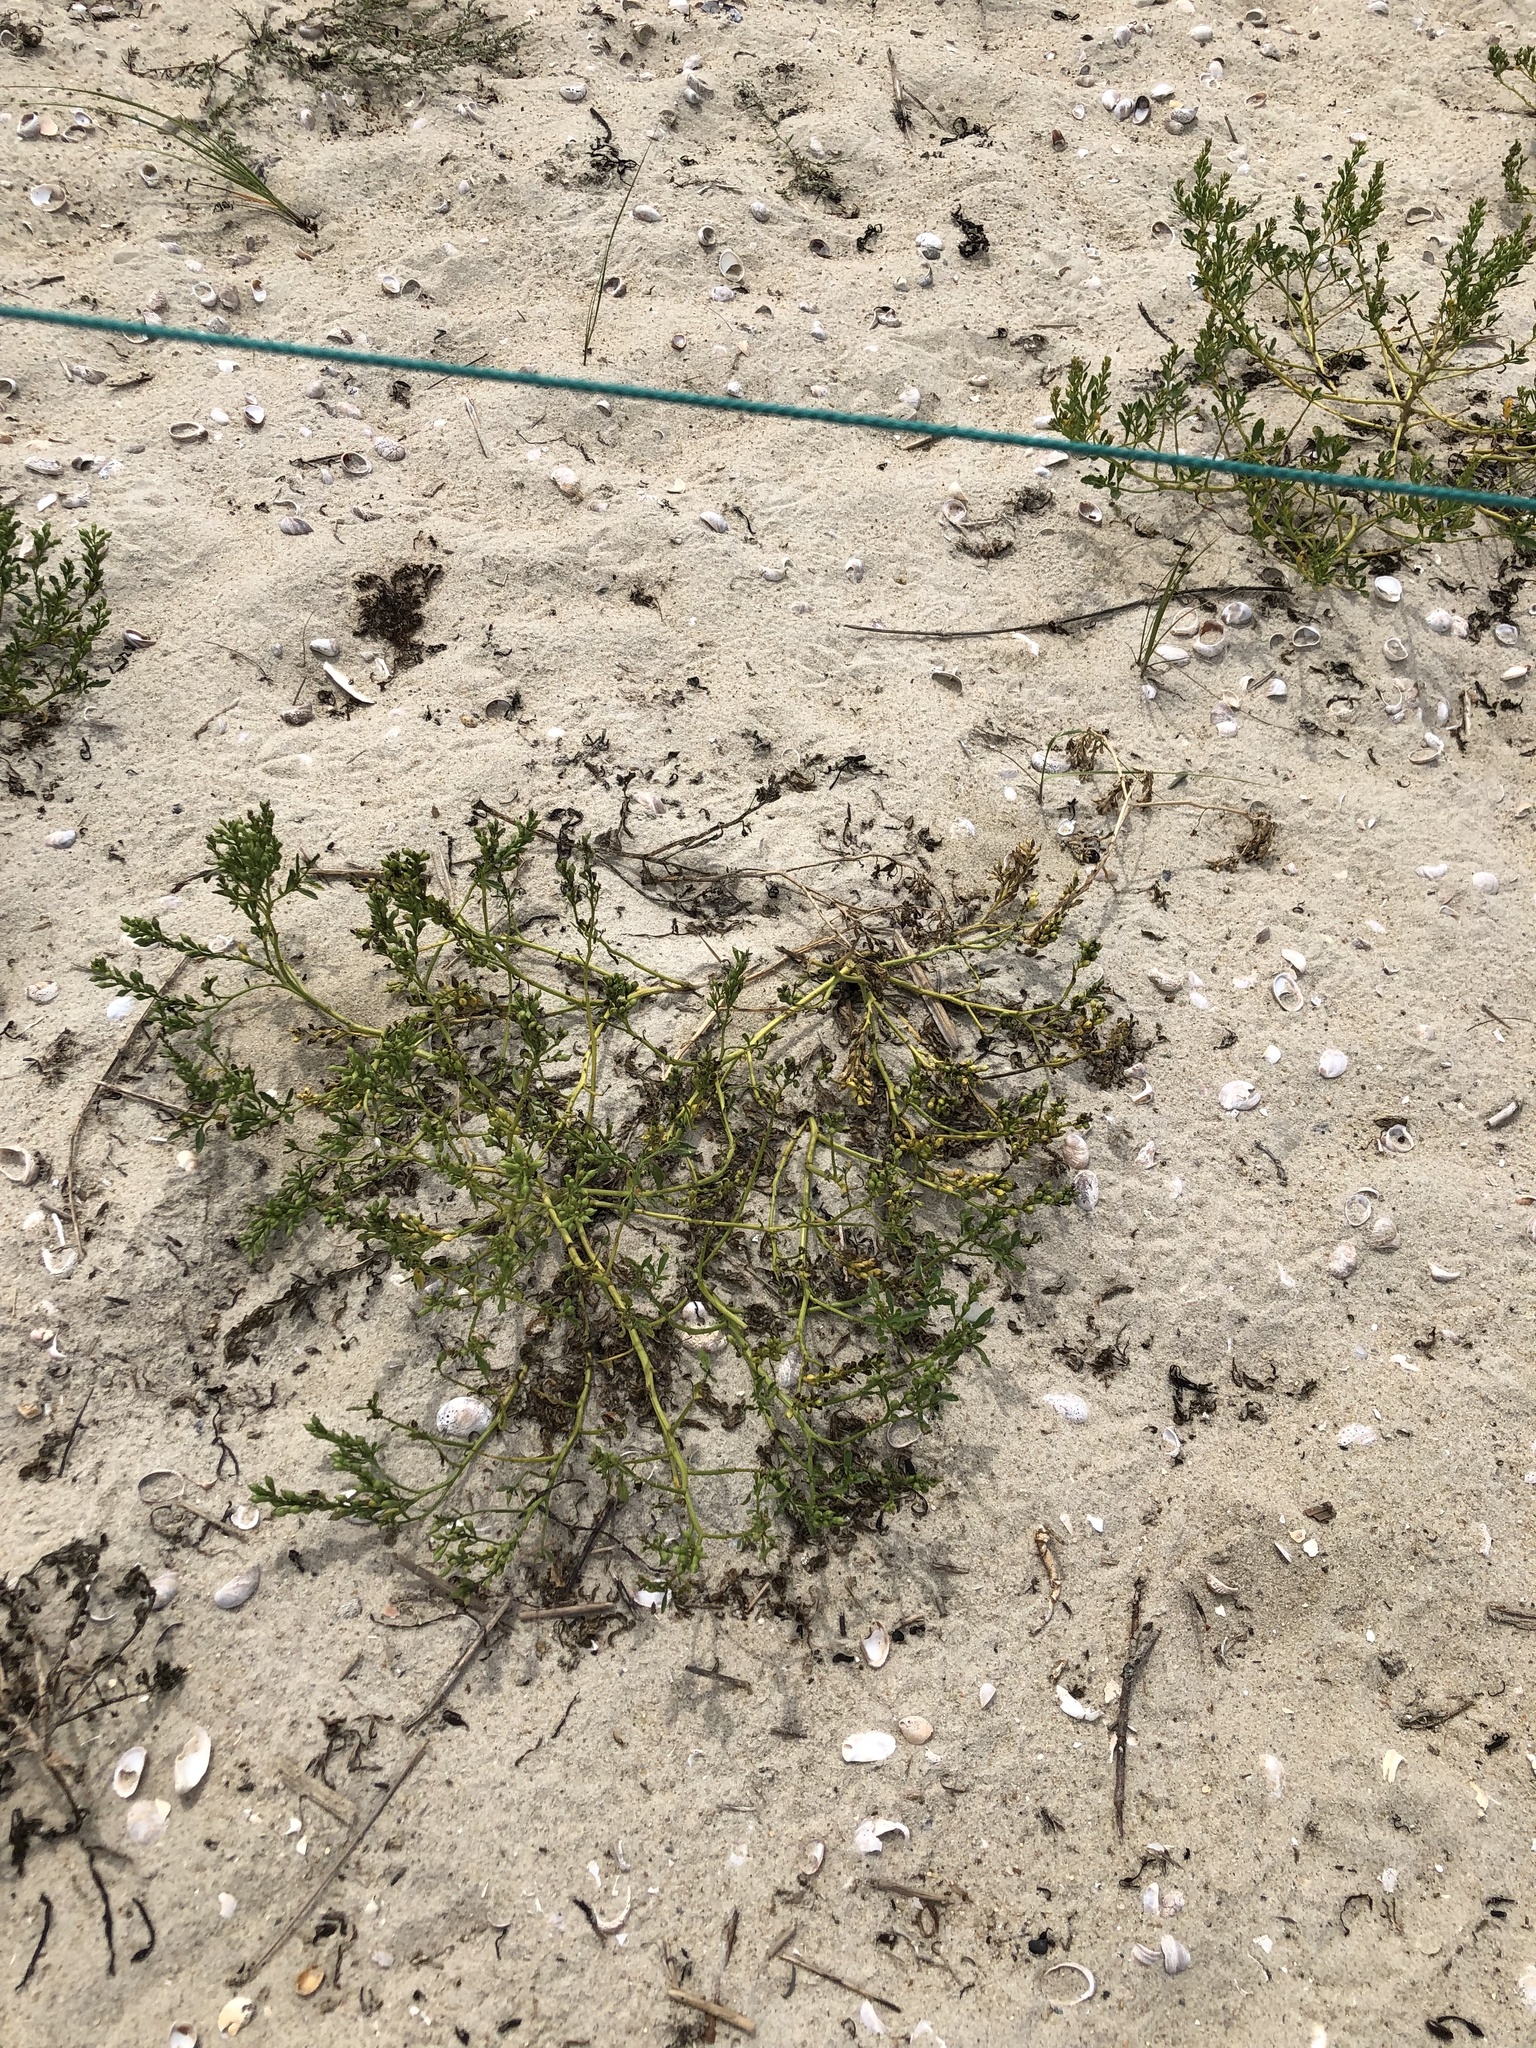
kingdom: Plantae
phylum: Tracheophyta
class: Magnoliopsida
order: Brassicales
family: Brassicaceae
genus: Cakile
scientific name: Cakile edentula
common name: American sea rocket
